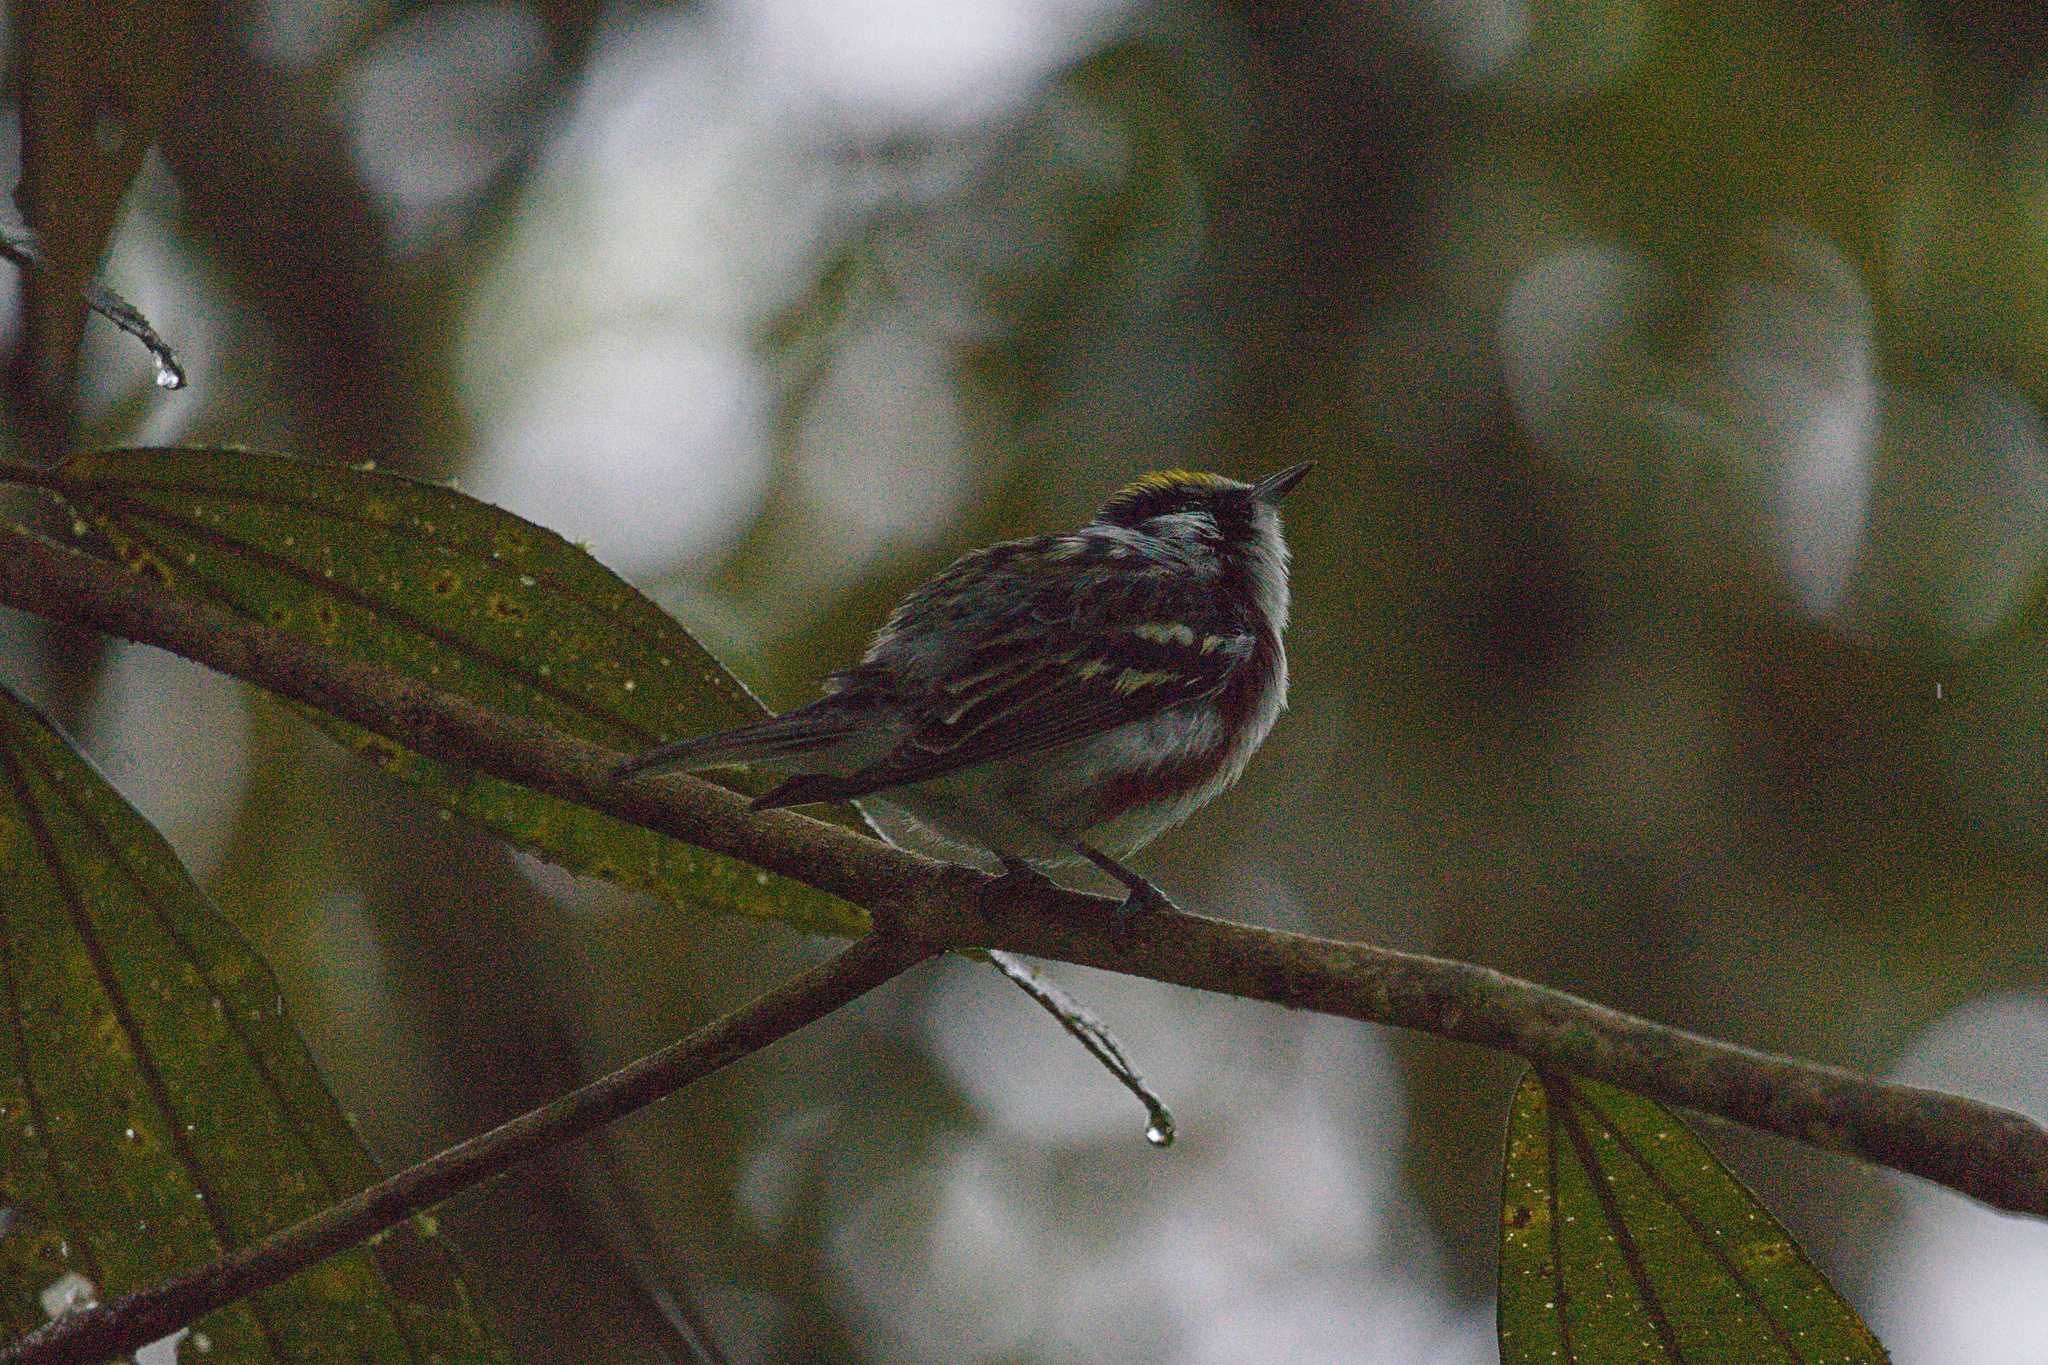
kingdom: Animalia
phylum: Chordata
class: Aves
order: Passeriformes
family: Parulidae
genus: Setophaga
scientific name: Setophaga pensylvanica
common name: Chestnut-sided warbler
